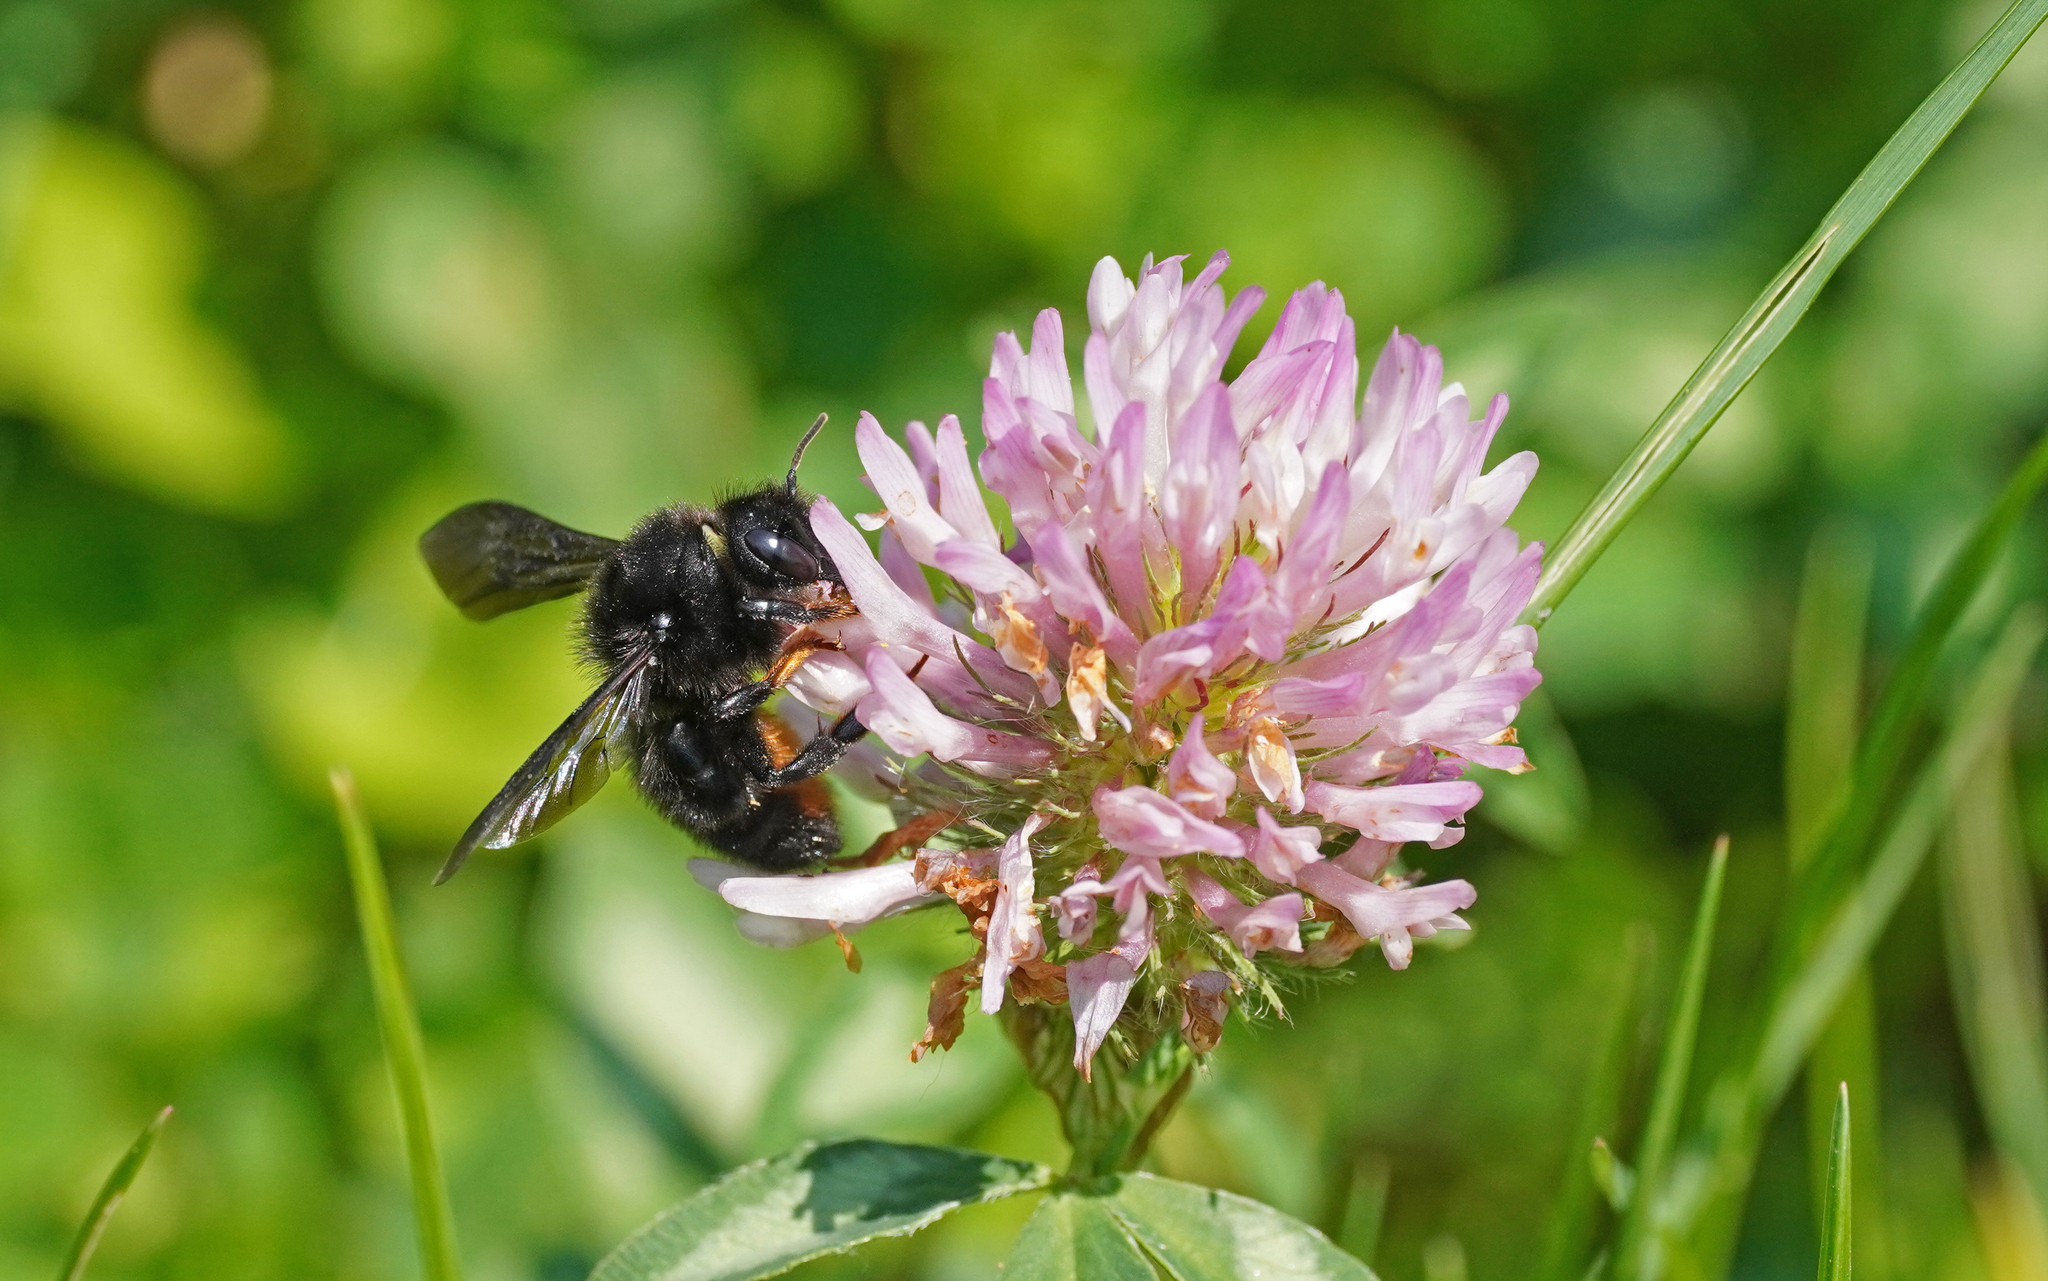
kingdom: Animalia
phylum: Arthropoda
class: Insecta
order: Hymenoptera
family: Megachilidae
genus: Megachile
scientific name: Megachile parietina
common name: Black mud bee
